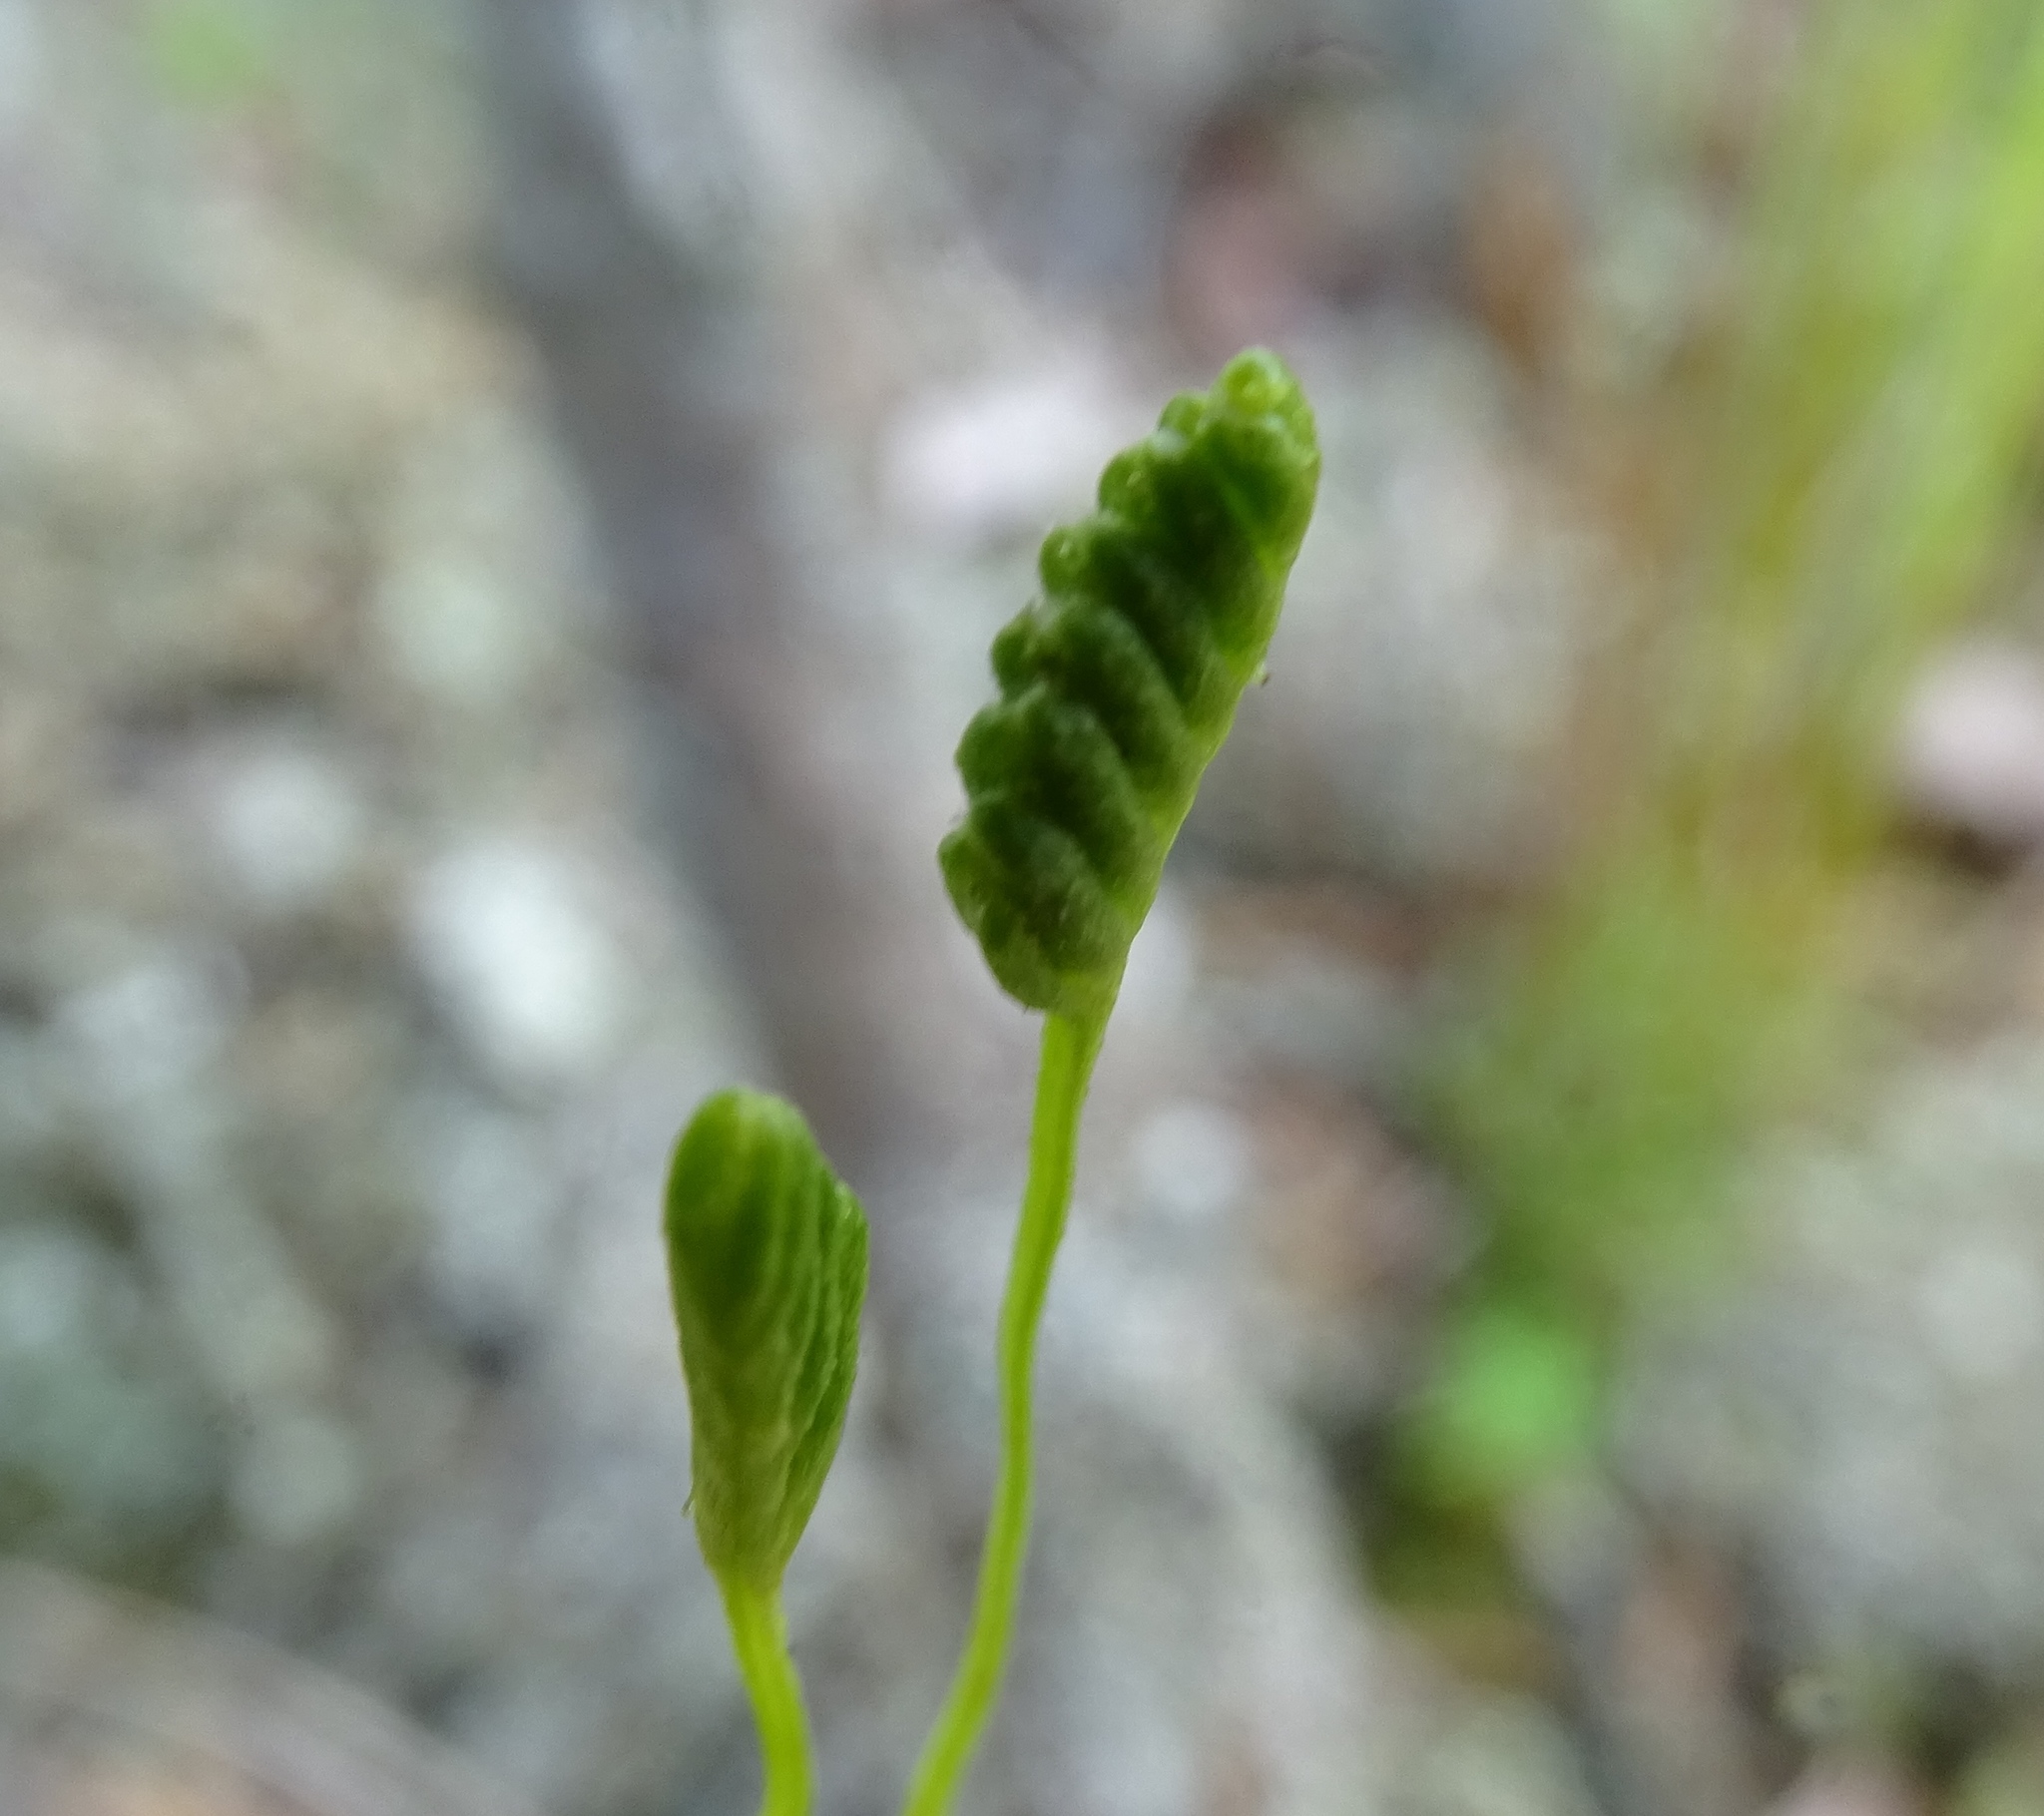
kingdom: Plantae
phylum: Tracheophyta
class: Polypodiopsida
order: Schizaeales
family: Schizaeaceae
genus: Schizaea
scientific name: Schizaea pusilla
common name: Curly-grass fern
